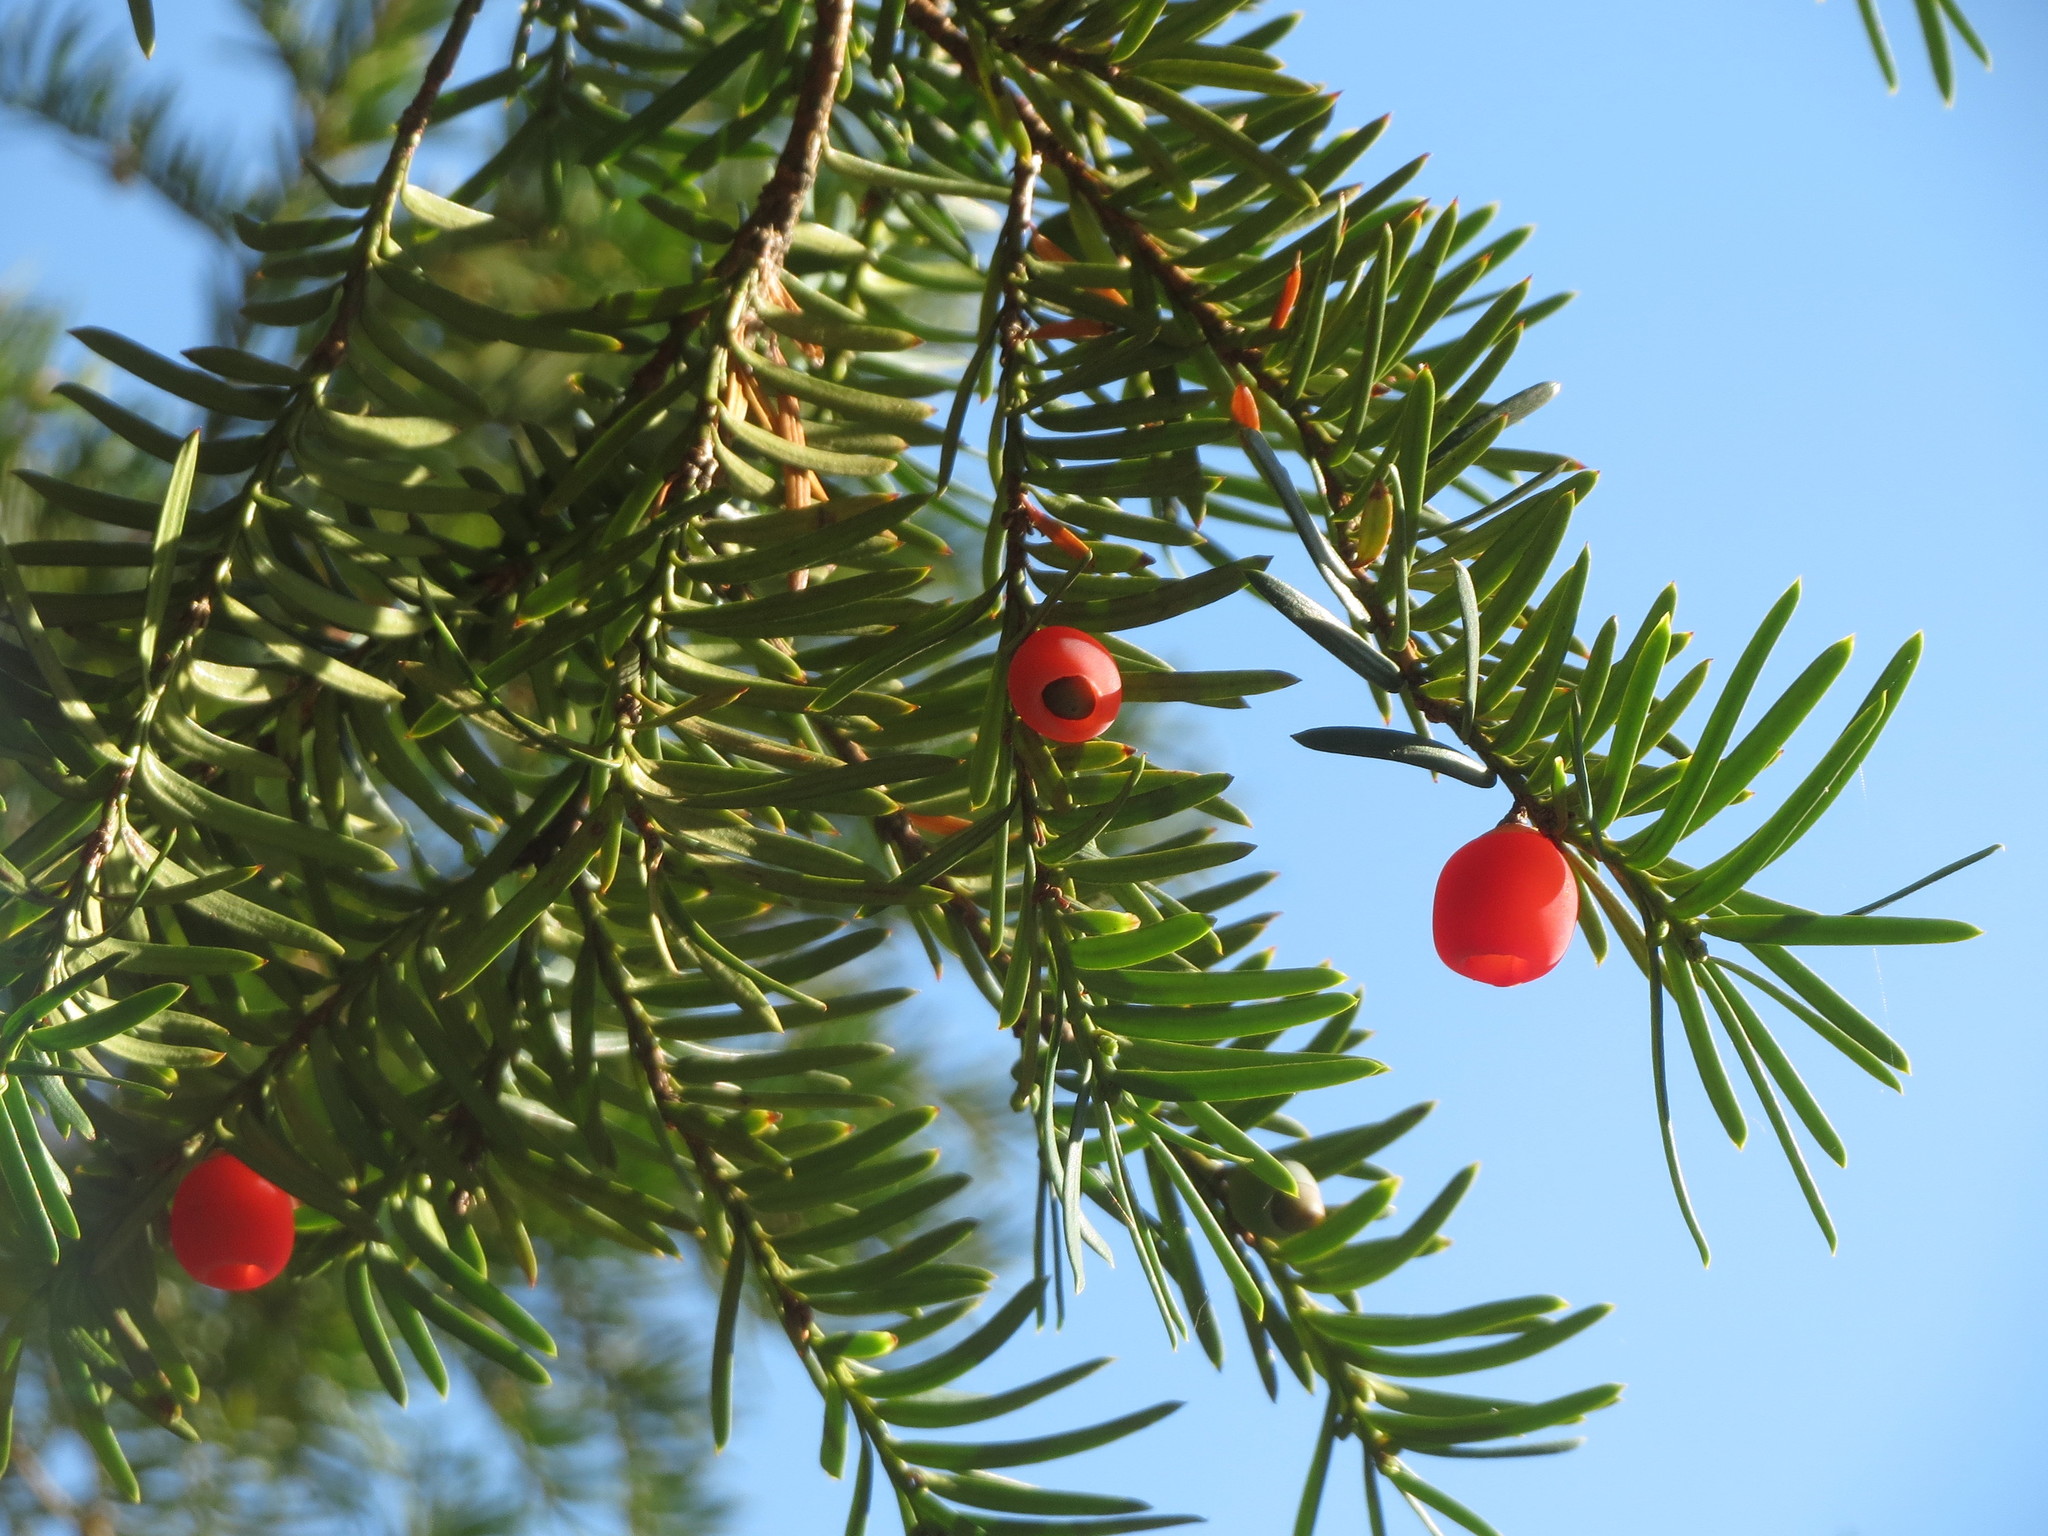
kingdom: Plantae
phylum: Tracheophyta
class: Pinopsida
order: Pinales
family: Taxaceae
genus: Taxus
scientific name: Taxus baccata
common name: Yew
